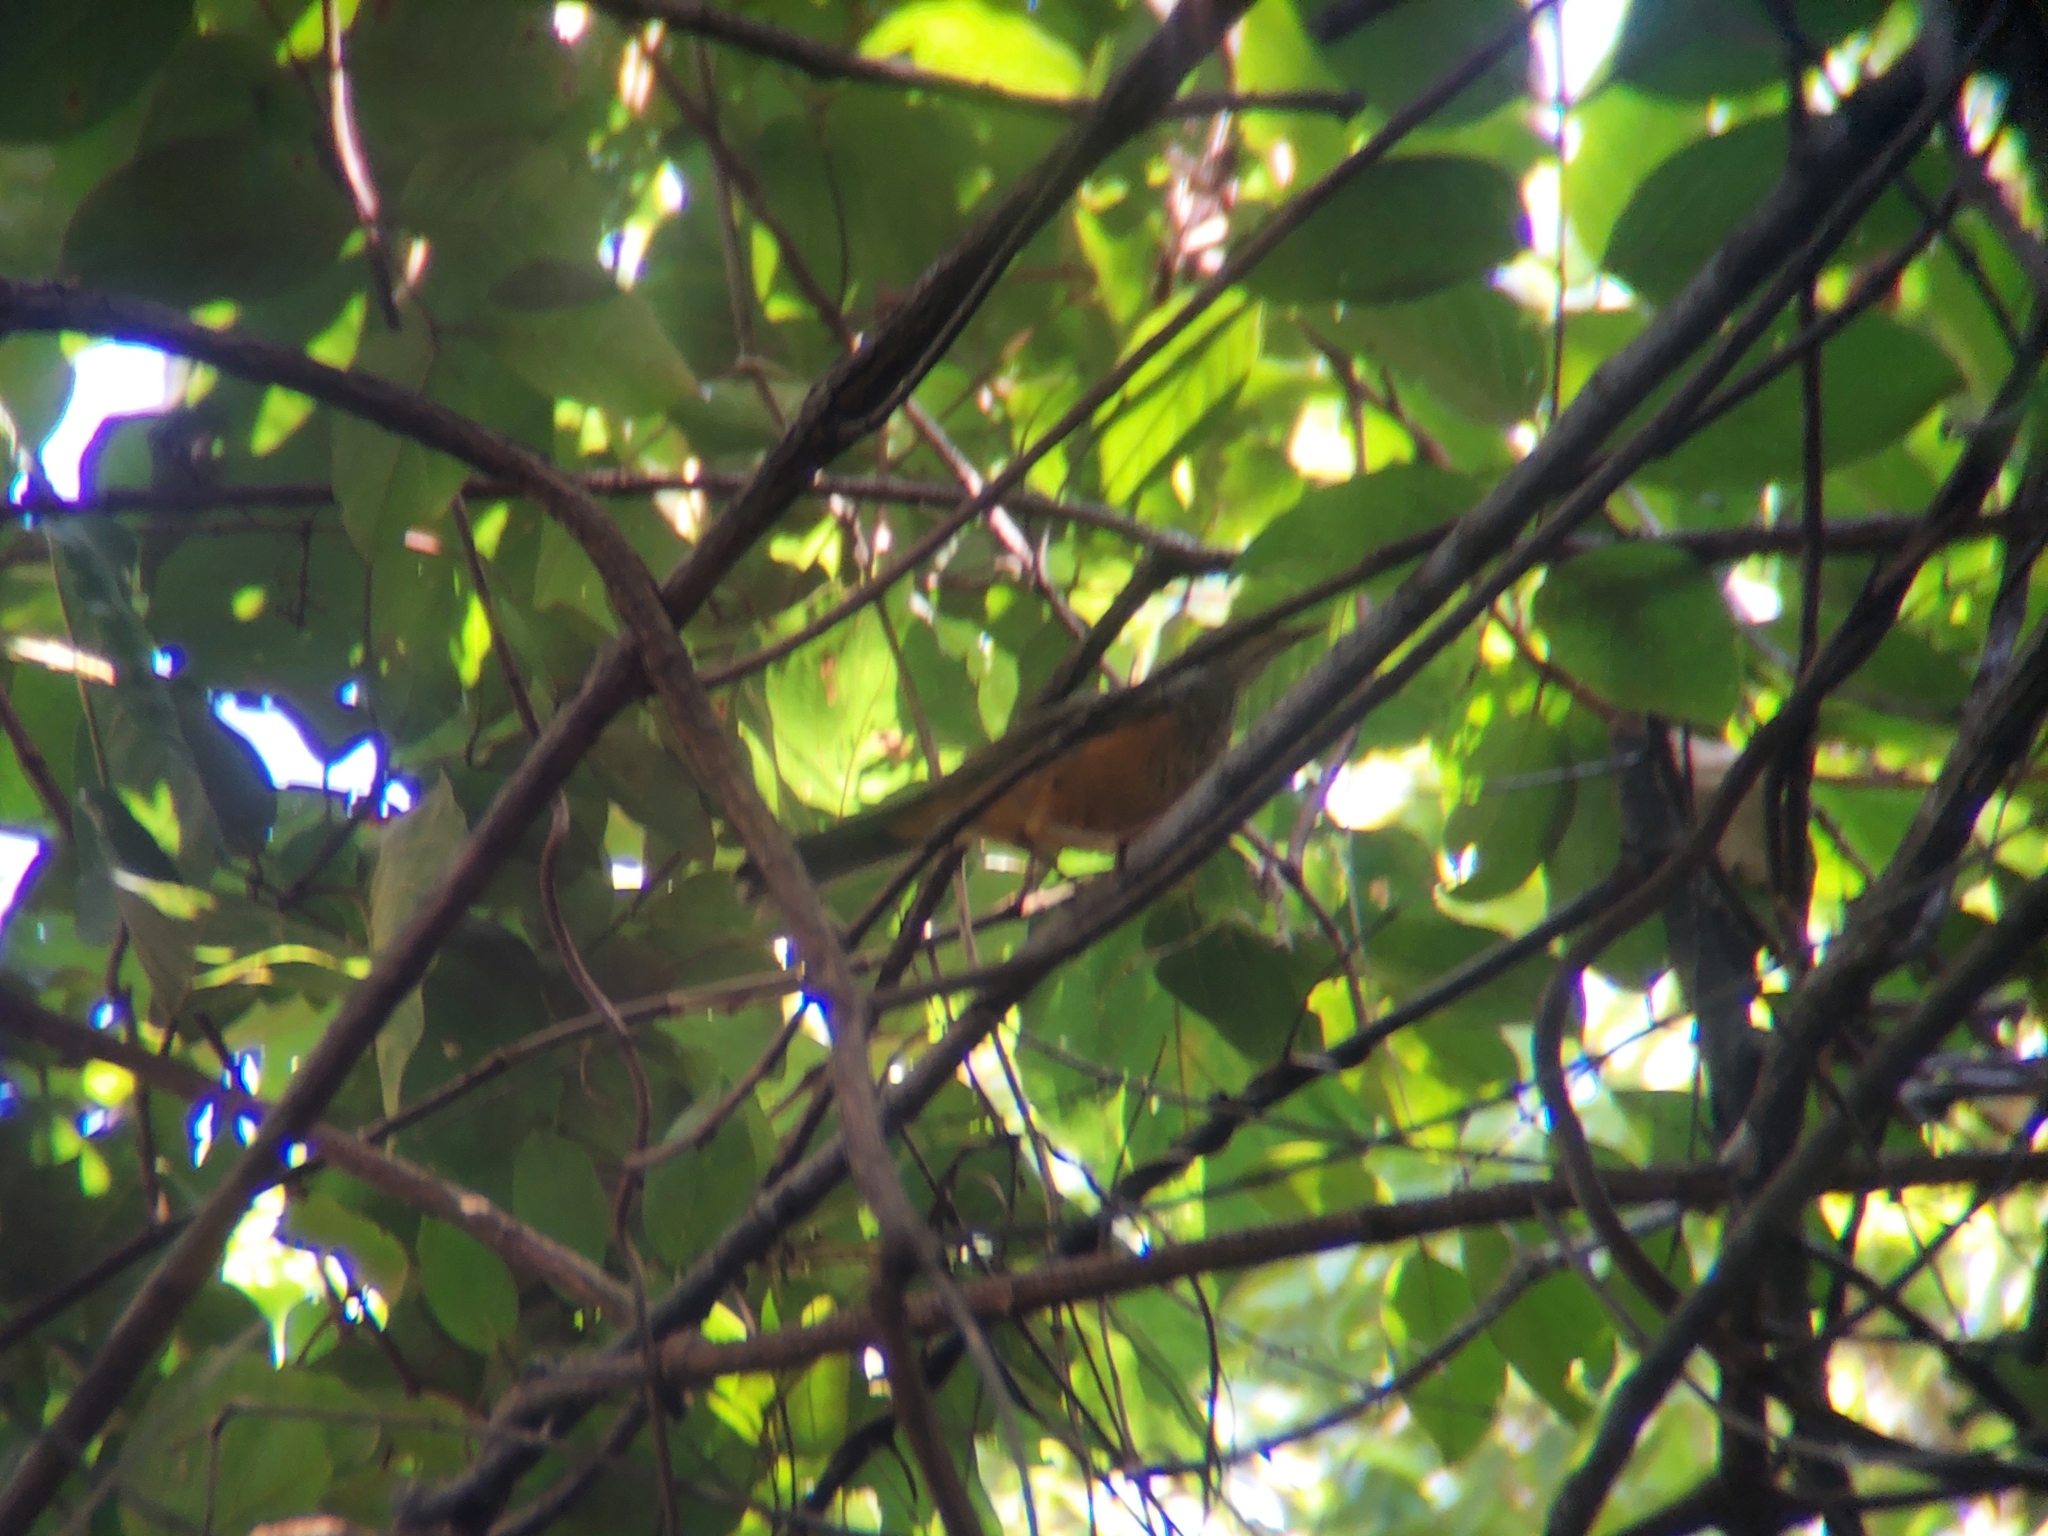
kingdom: Animalia
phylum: Chordata
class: Aves
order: Passeriformes
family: Turdidae
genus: Turdus
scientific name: Turdus rufiventris
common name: Rufous-bellied thrush
